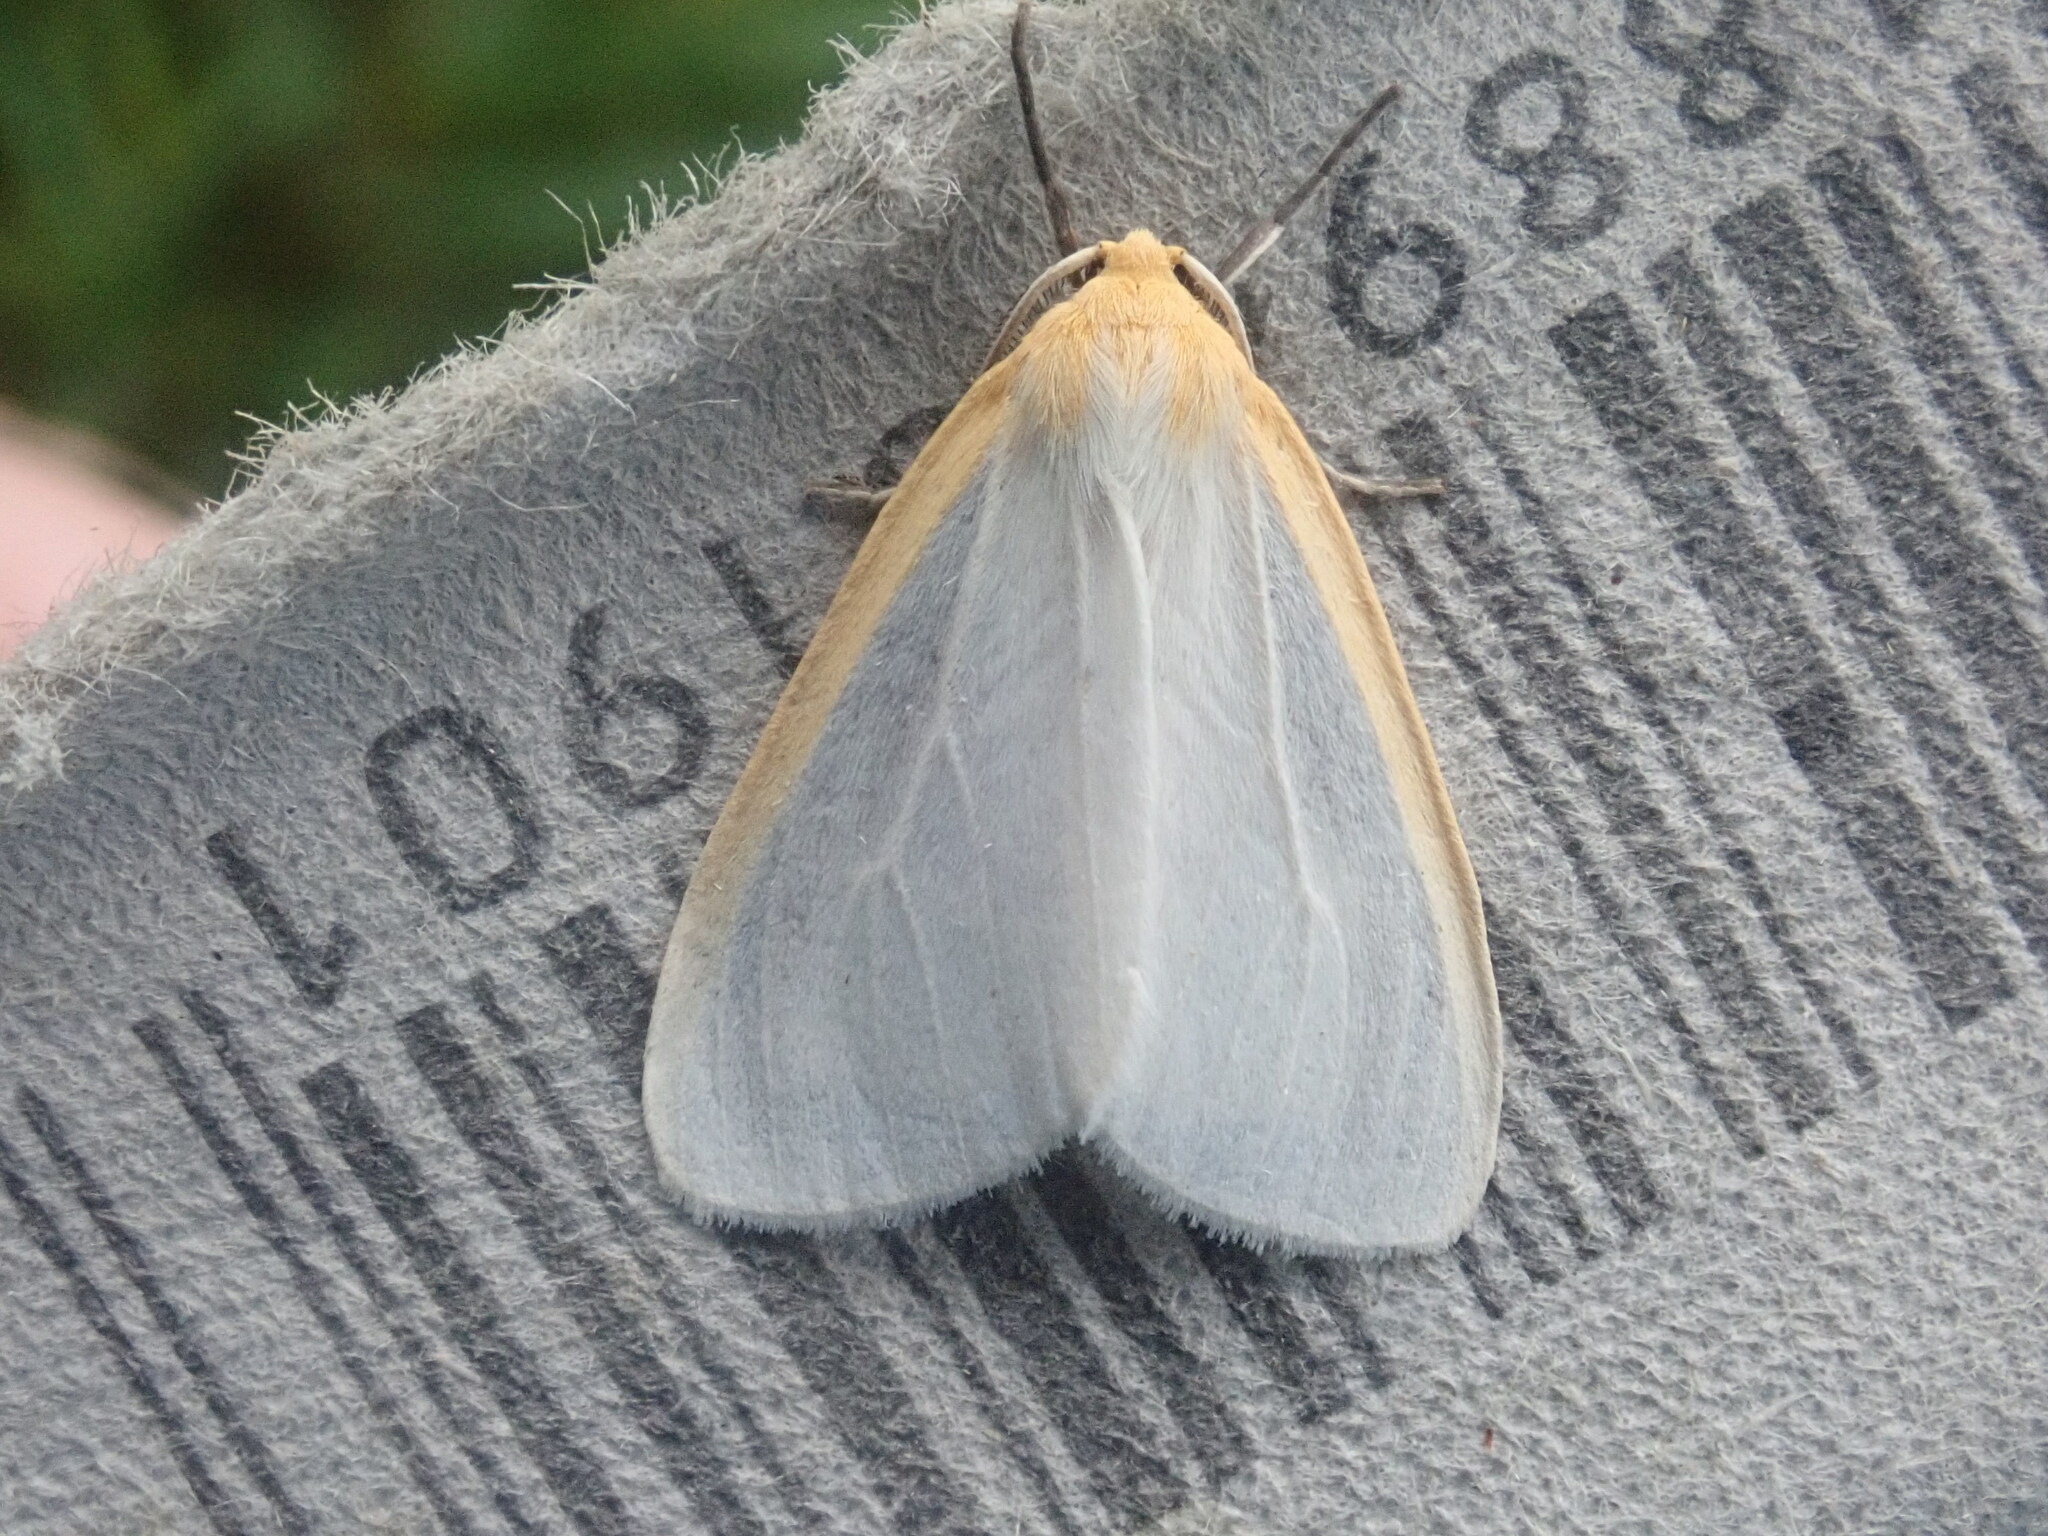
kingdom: Animalia
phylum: Arthropoda
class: Insecta
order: Lepidoptera
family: Erebidae
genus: Cycnia
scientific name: Cycnia tenera
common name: Delicate cycnia moth
